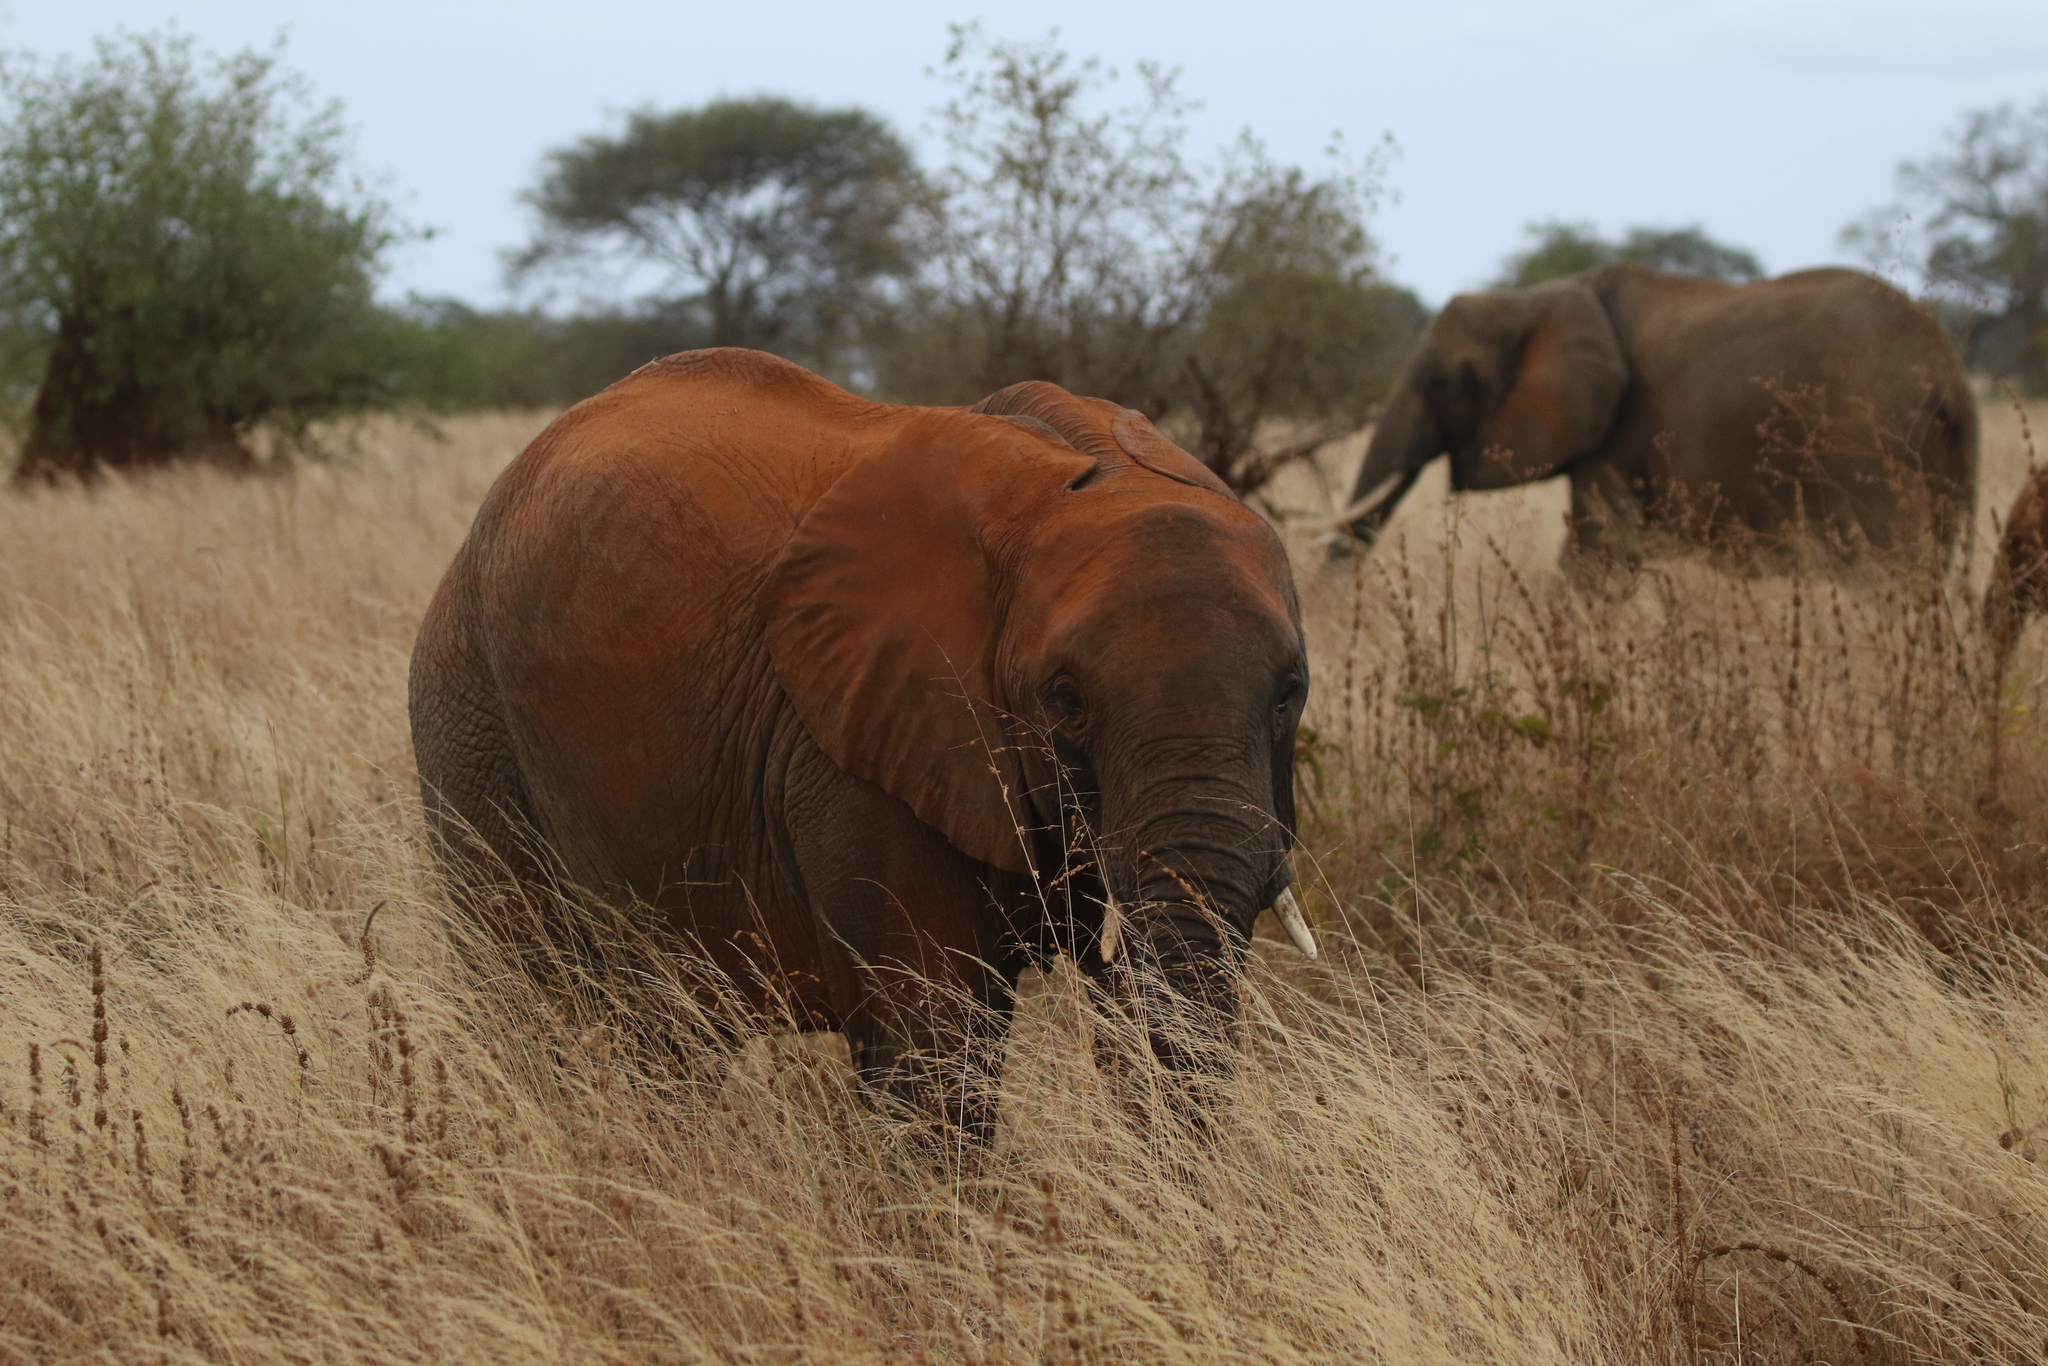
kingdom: Animalia
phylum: Chordata
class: Mammalia
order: Proboscidea
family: Elephantidae
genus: Loxodonta
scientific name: Loxodonta africana
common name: African elephant
